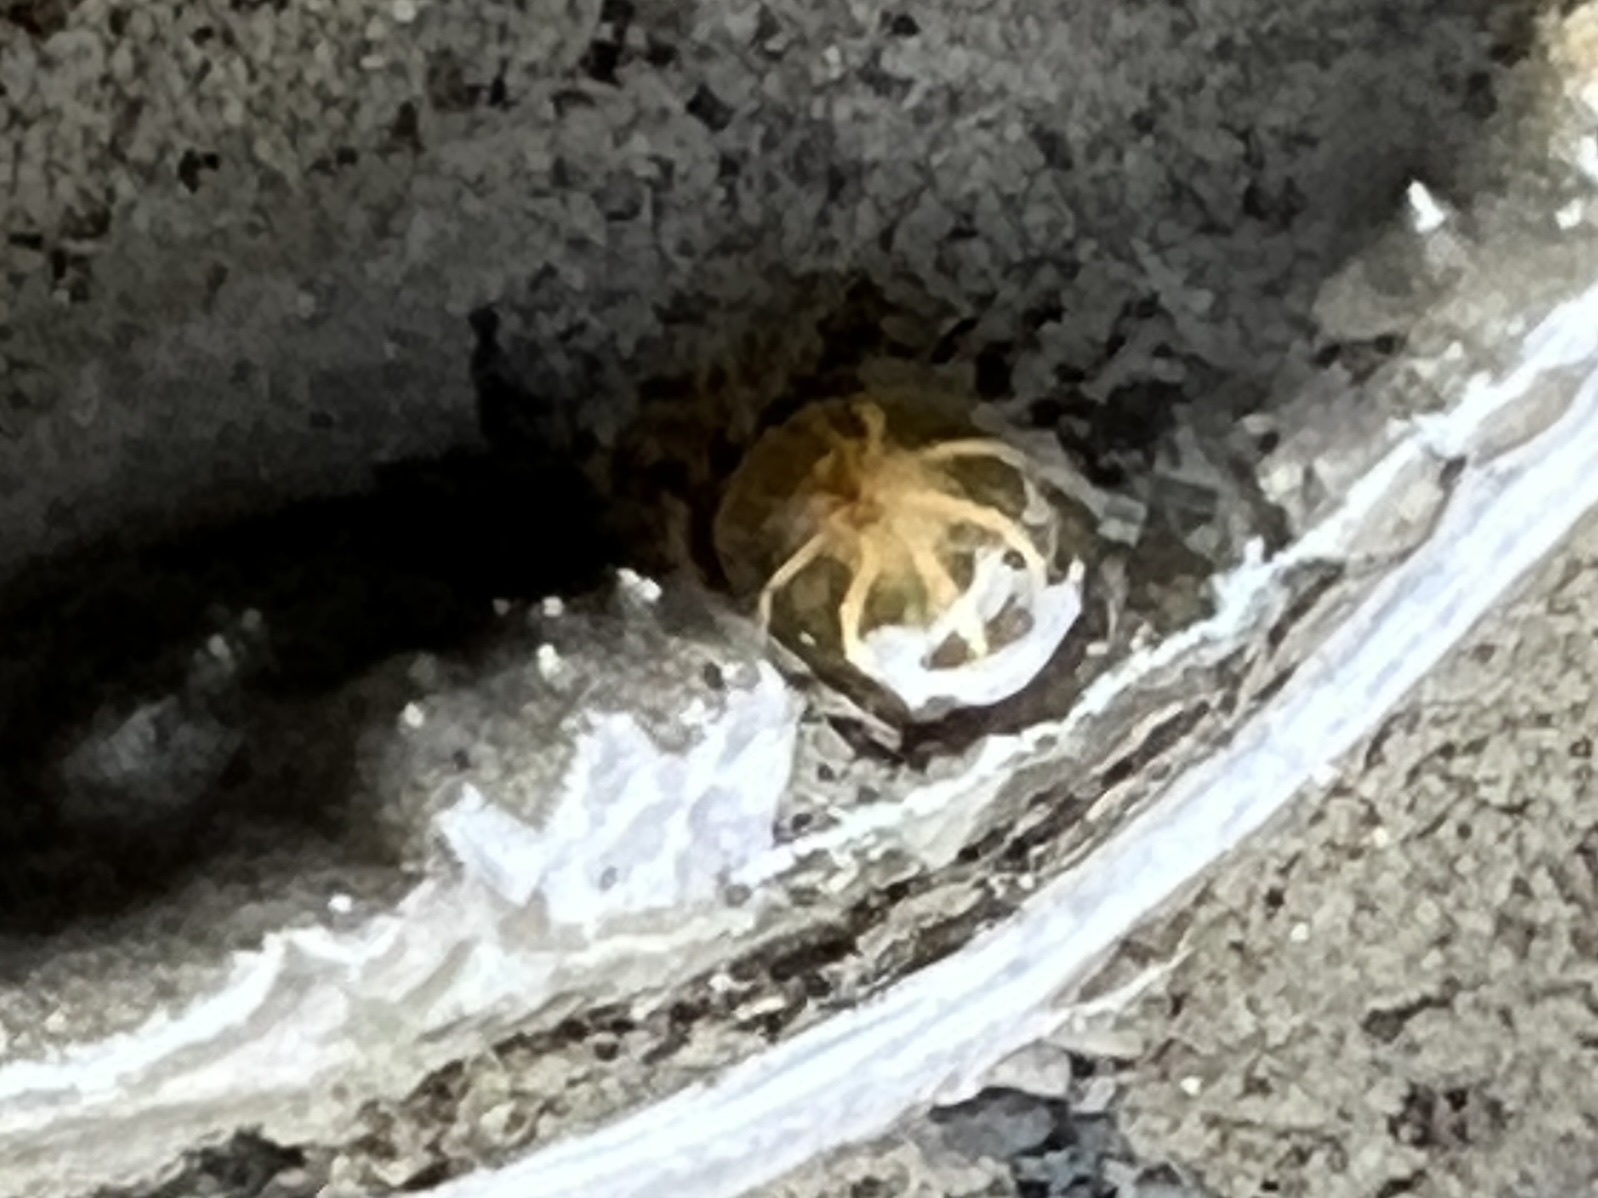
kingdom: Animalia
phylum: Cnidaria
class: Anthozoa
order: Actiniaria
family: Diadumenidae
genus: Diadumene
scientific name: Diadumene lineata
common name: Orange-striped anemone
